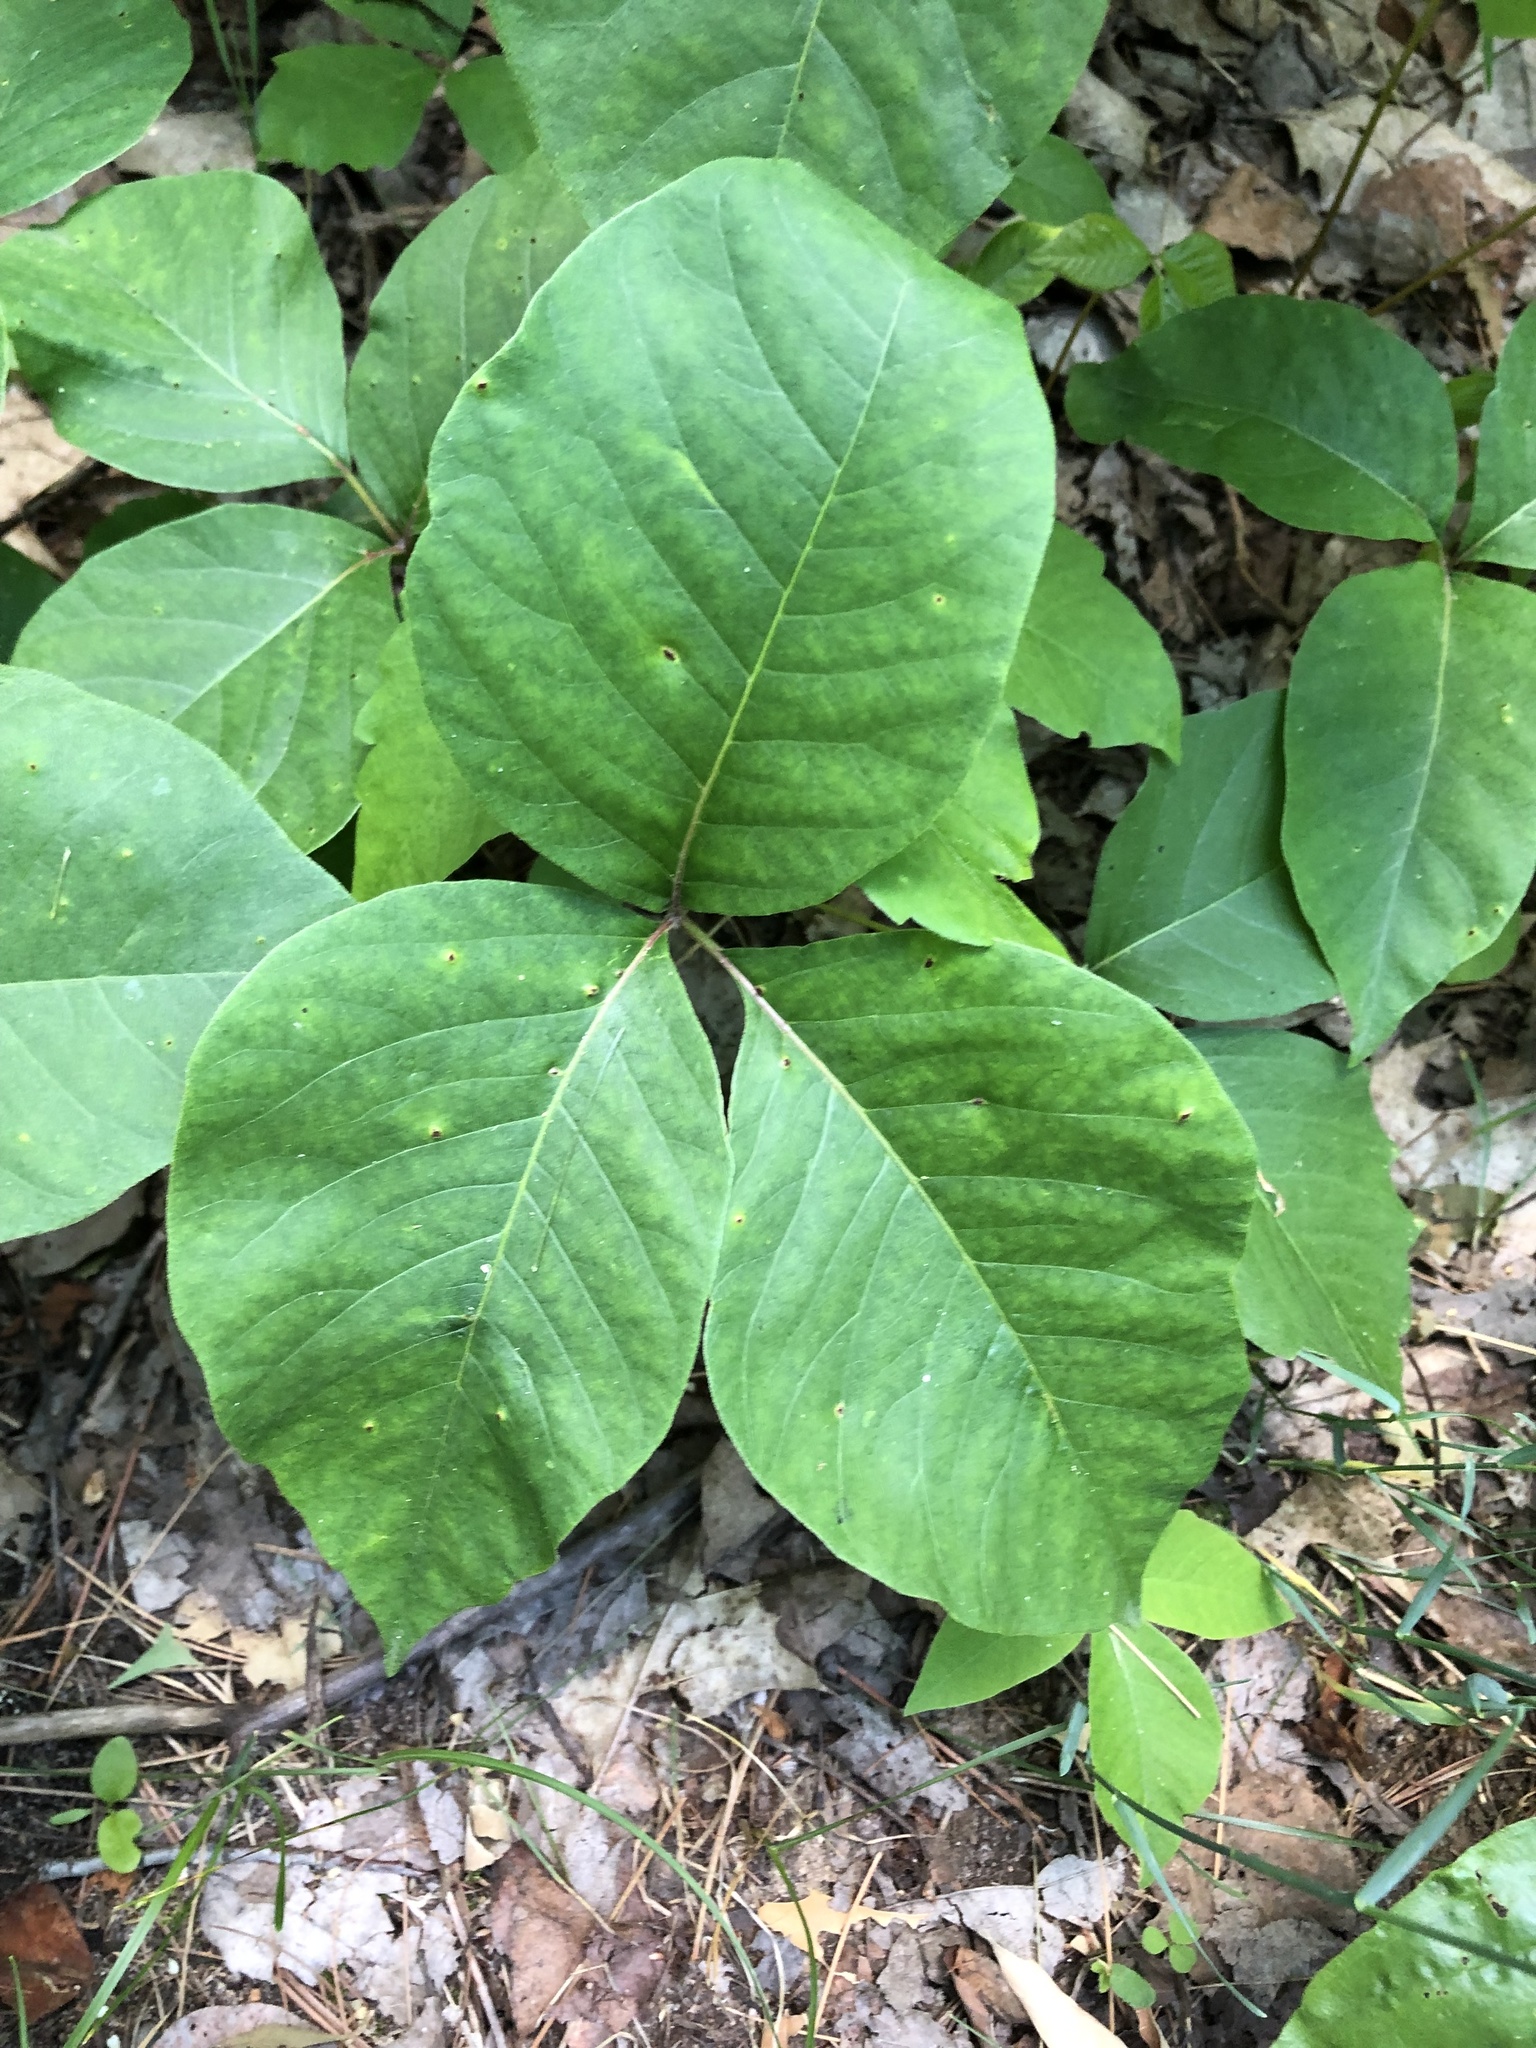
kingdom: Plantae
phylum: Tracheophyta
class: Magnoliopsida
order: Sapindales
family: Anacardiaceae
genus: Toxicodendron
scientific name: Toxicodendron rydbergii
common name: Rydberg's poison-ivy
